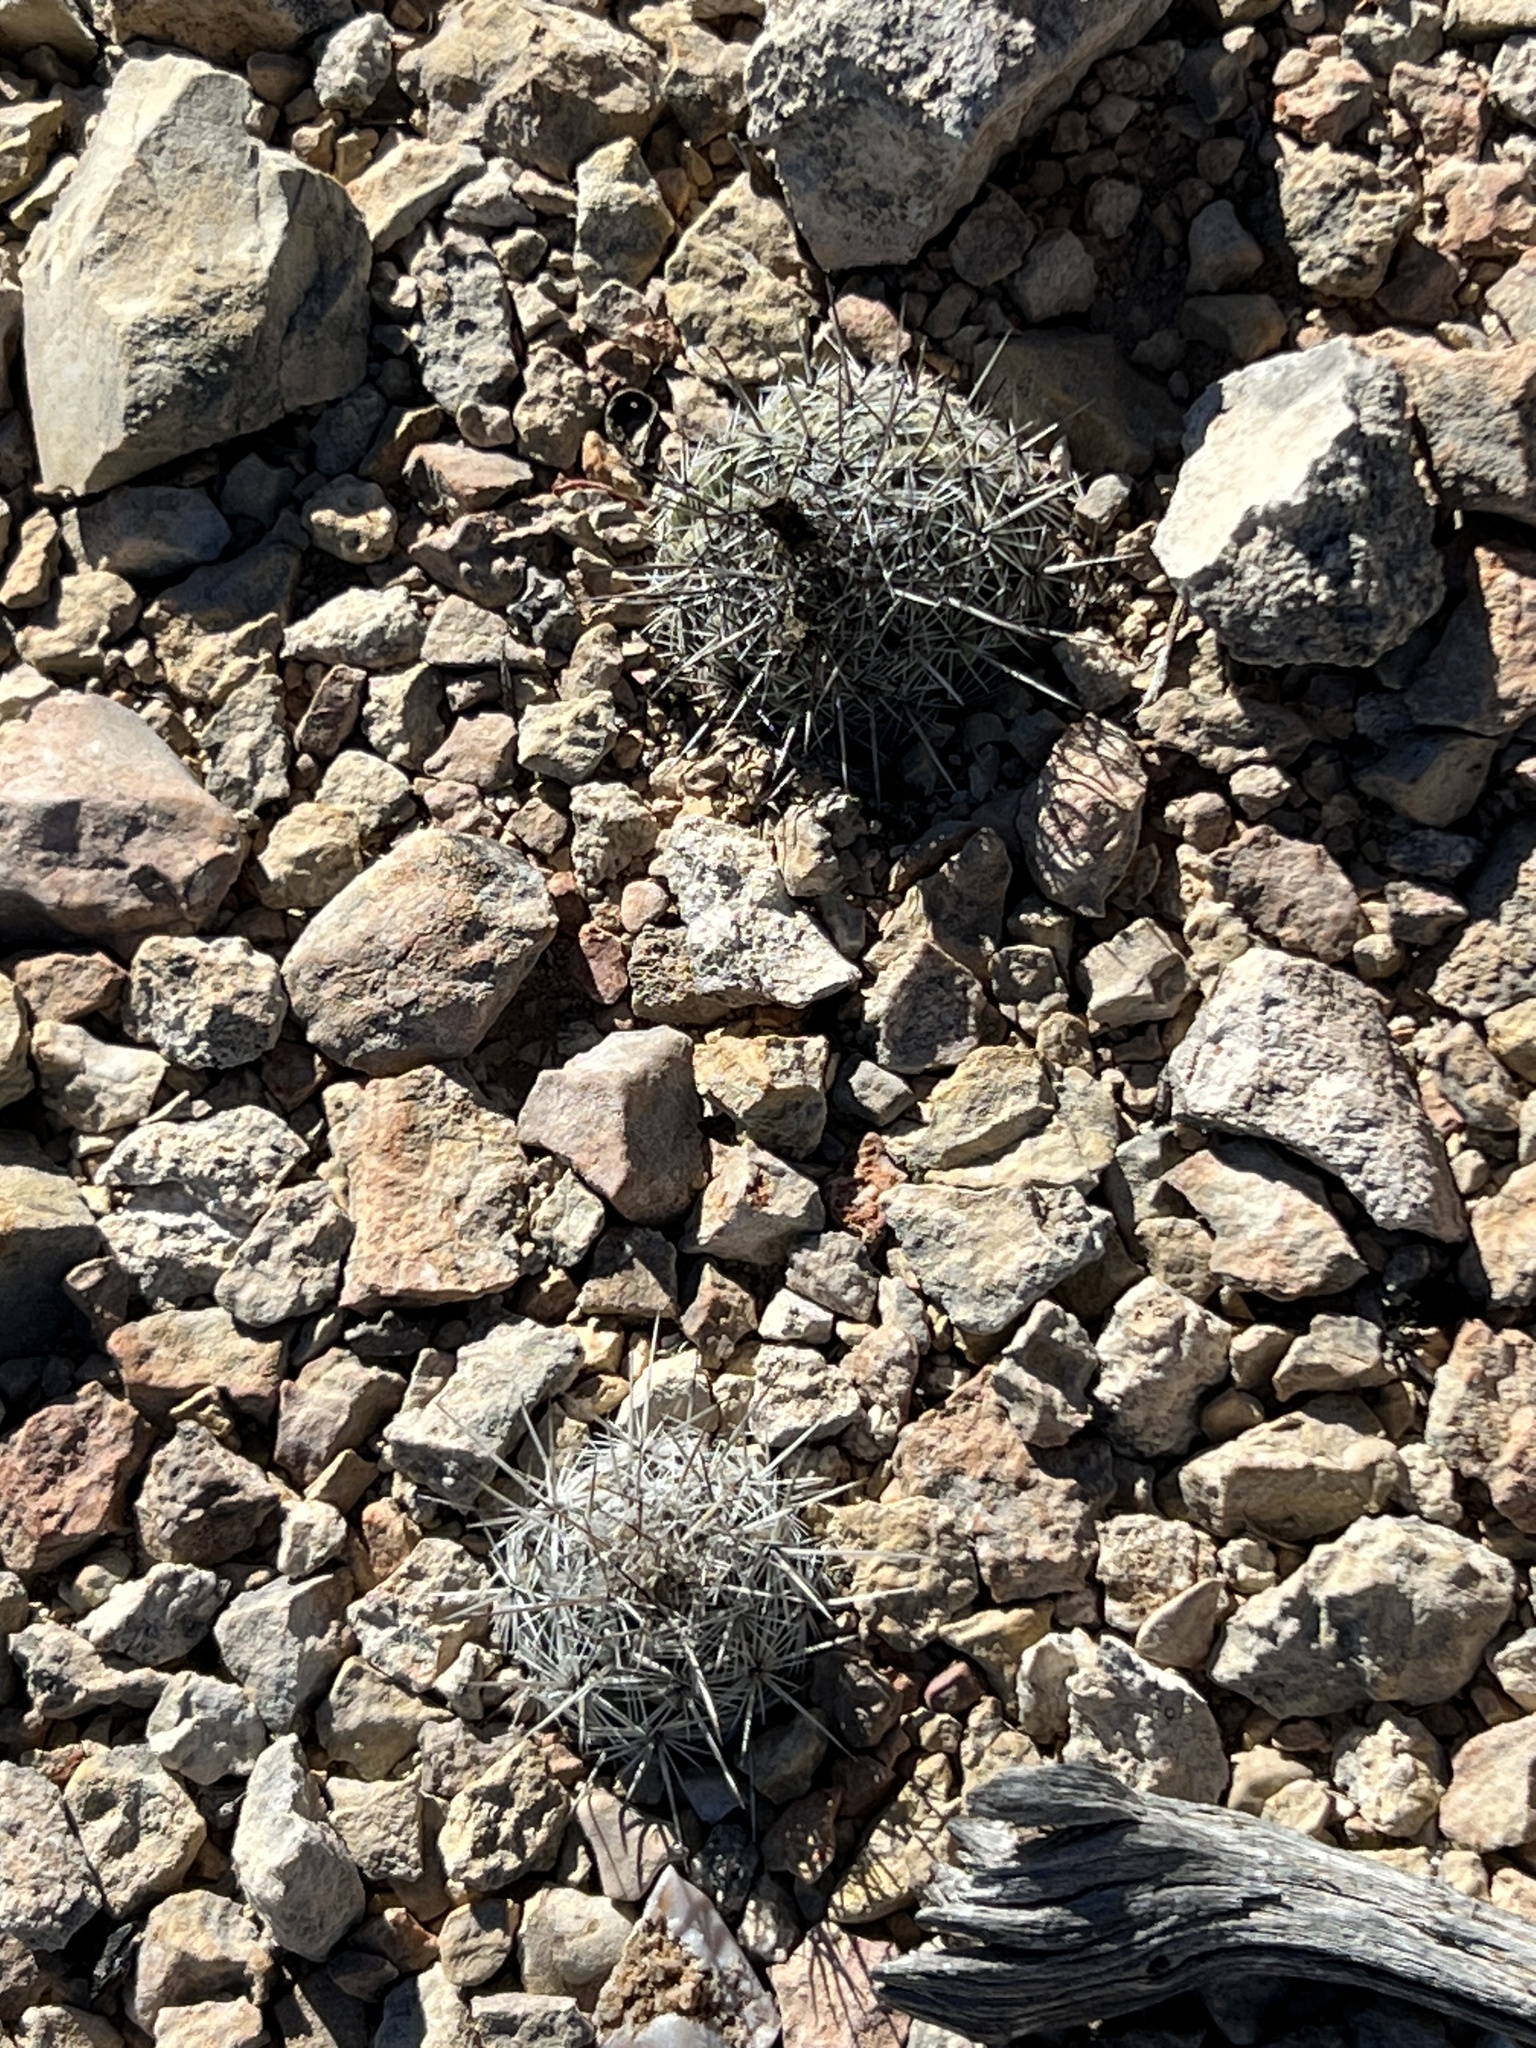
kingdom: Plantae
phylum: Tracheophyta
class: Magnoliopsida
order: Caryophyllales
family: Cactaceae
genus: Cochemiea
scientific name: Cochemiea conoidea
